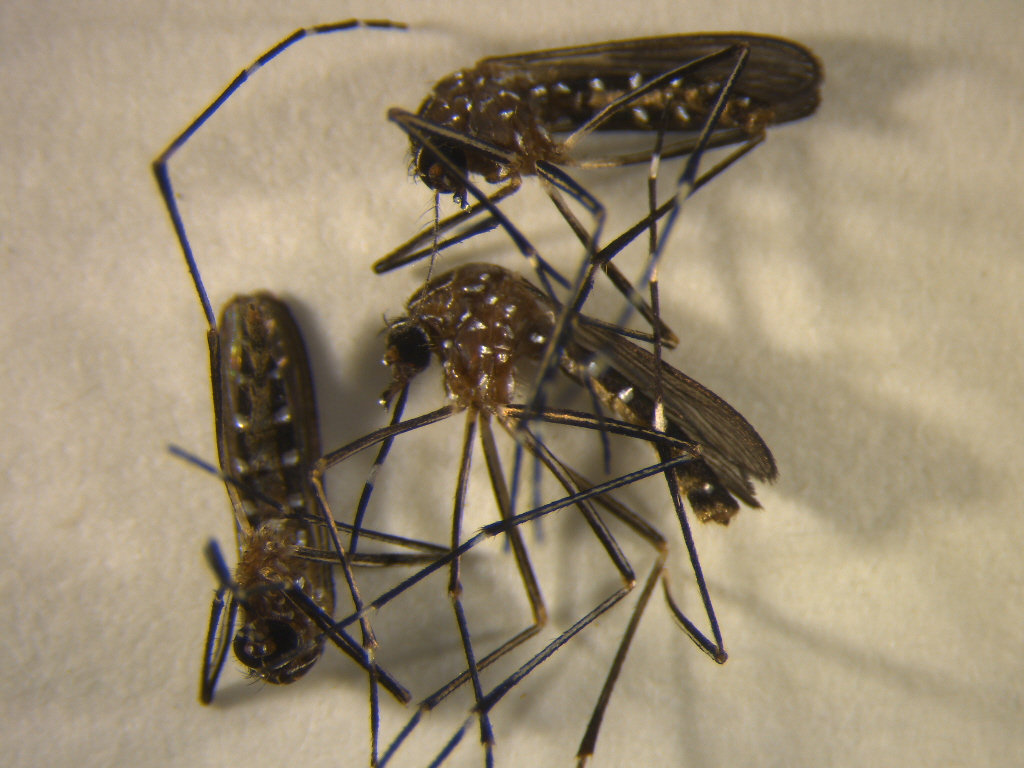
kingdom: Animalia
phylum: Arthropoda
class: Insecta
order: Diptera
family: Culicidae
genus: Aedes
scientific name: Aedes notoscriptus
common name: Australian backyard mosquito
